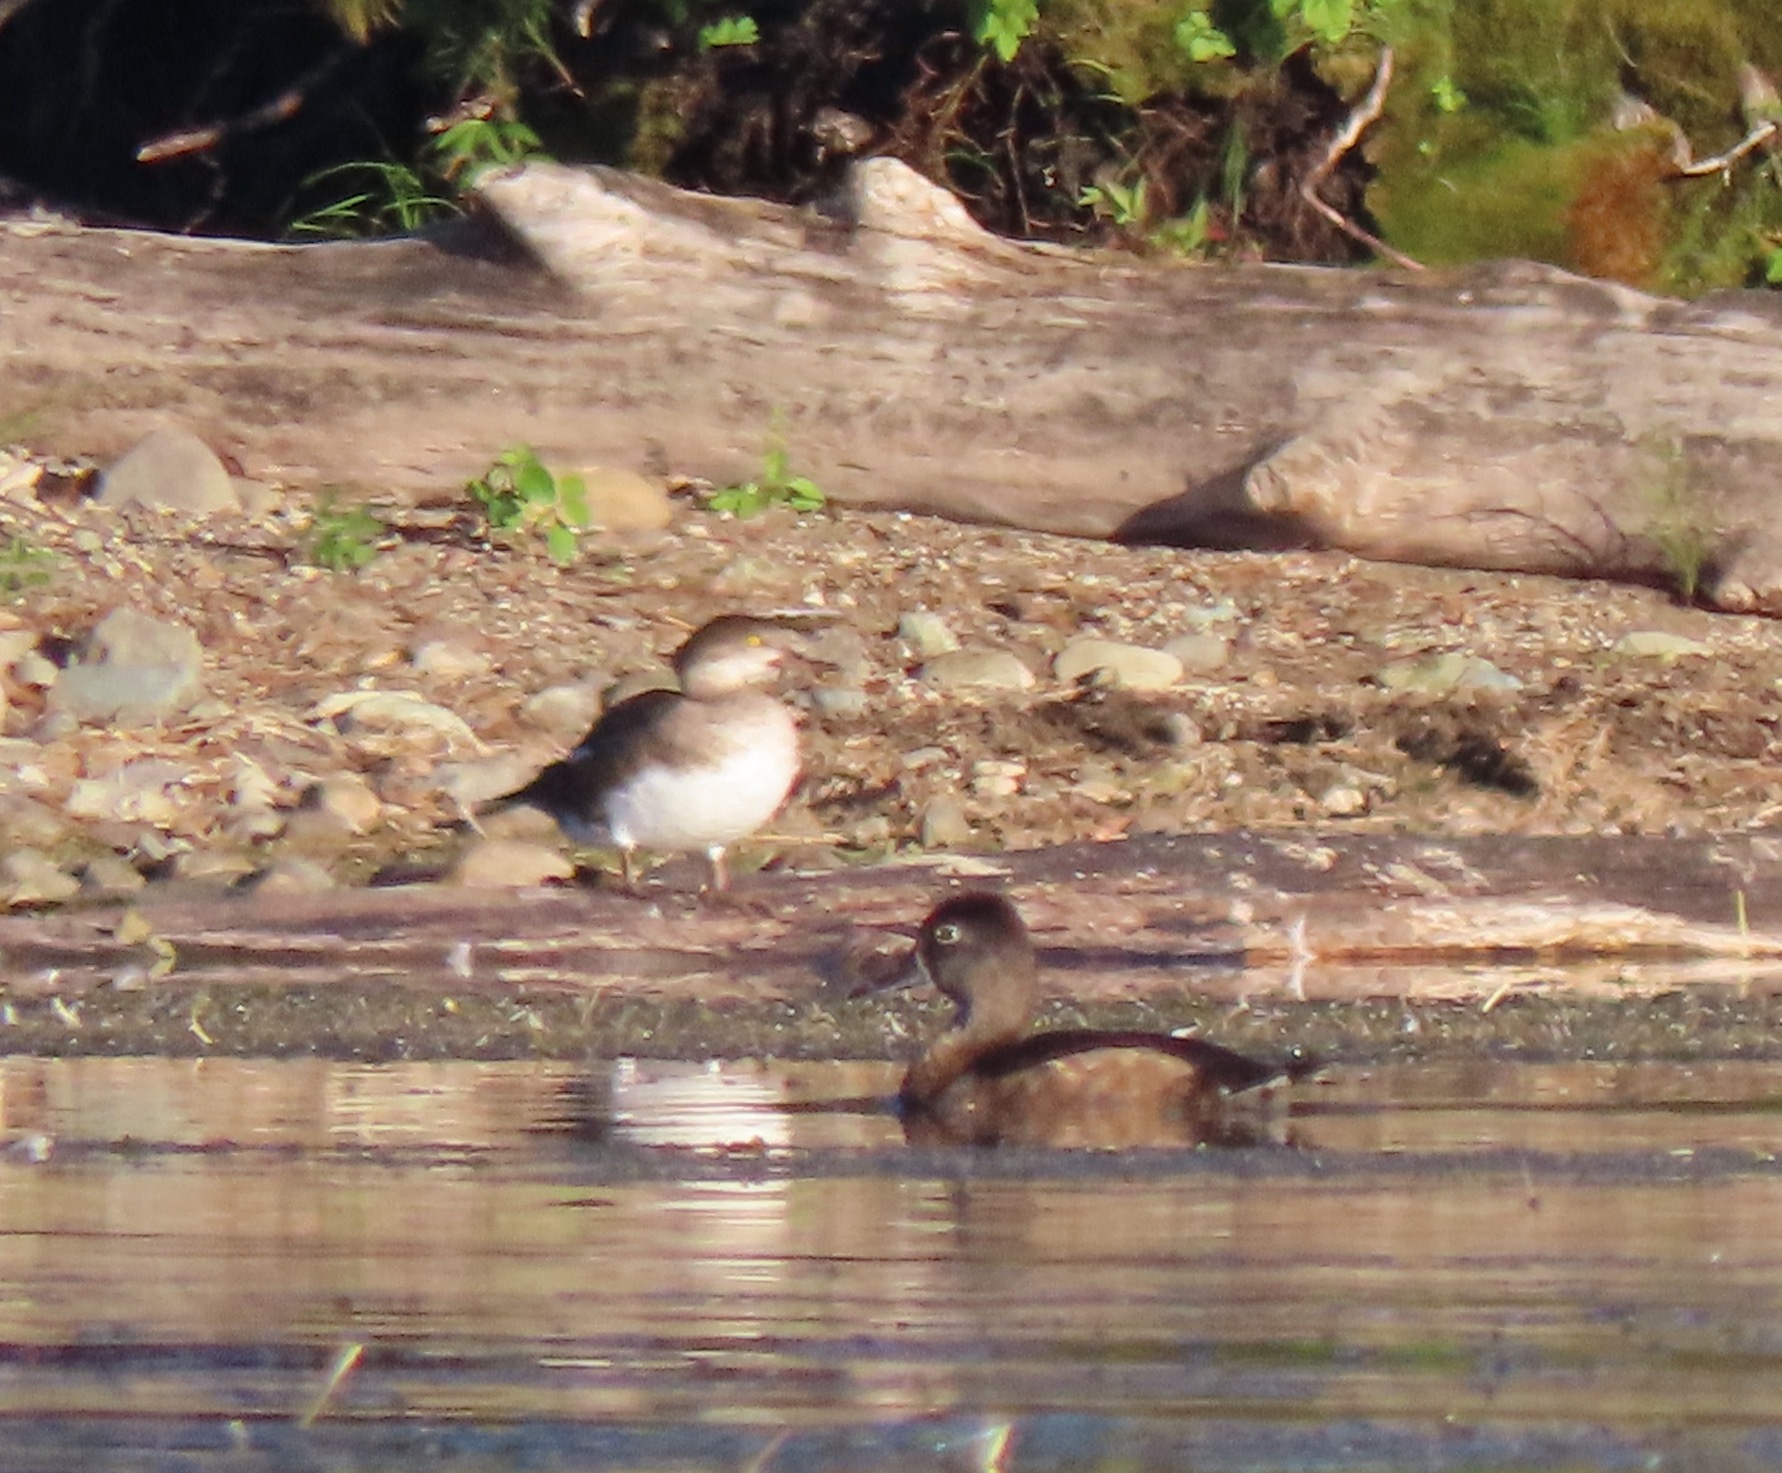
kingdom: Animalia
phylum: Chordata
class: Aves
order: Anseriformes
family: Anatidae
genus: Aythya
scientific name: Aythya collaris
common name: Ring-necked duck
